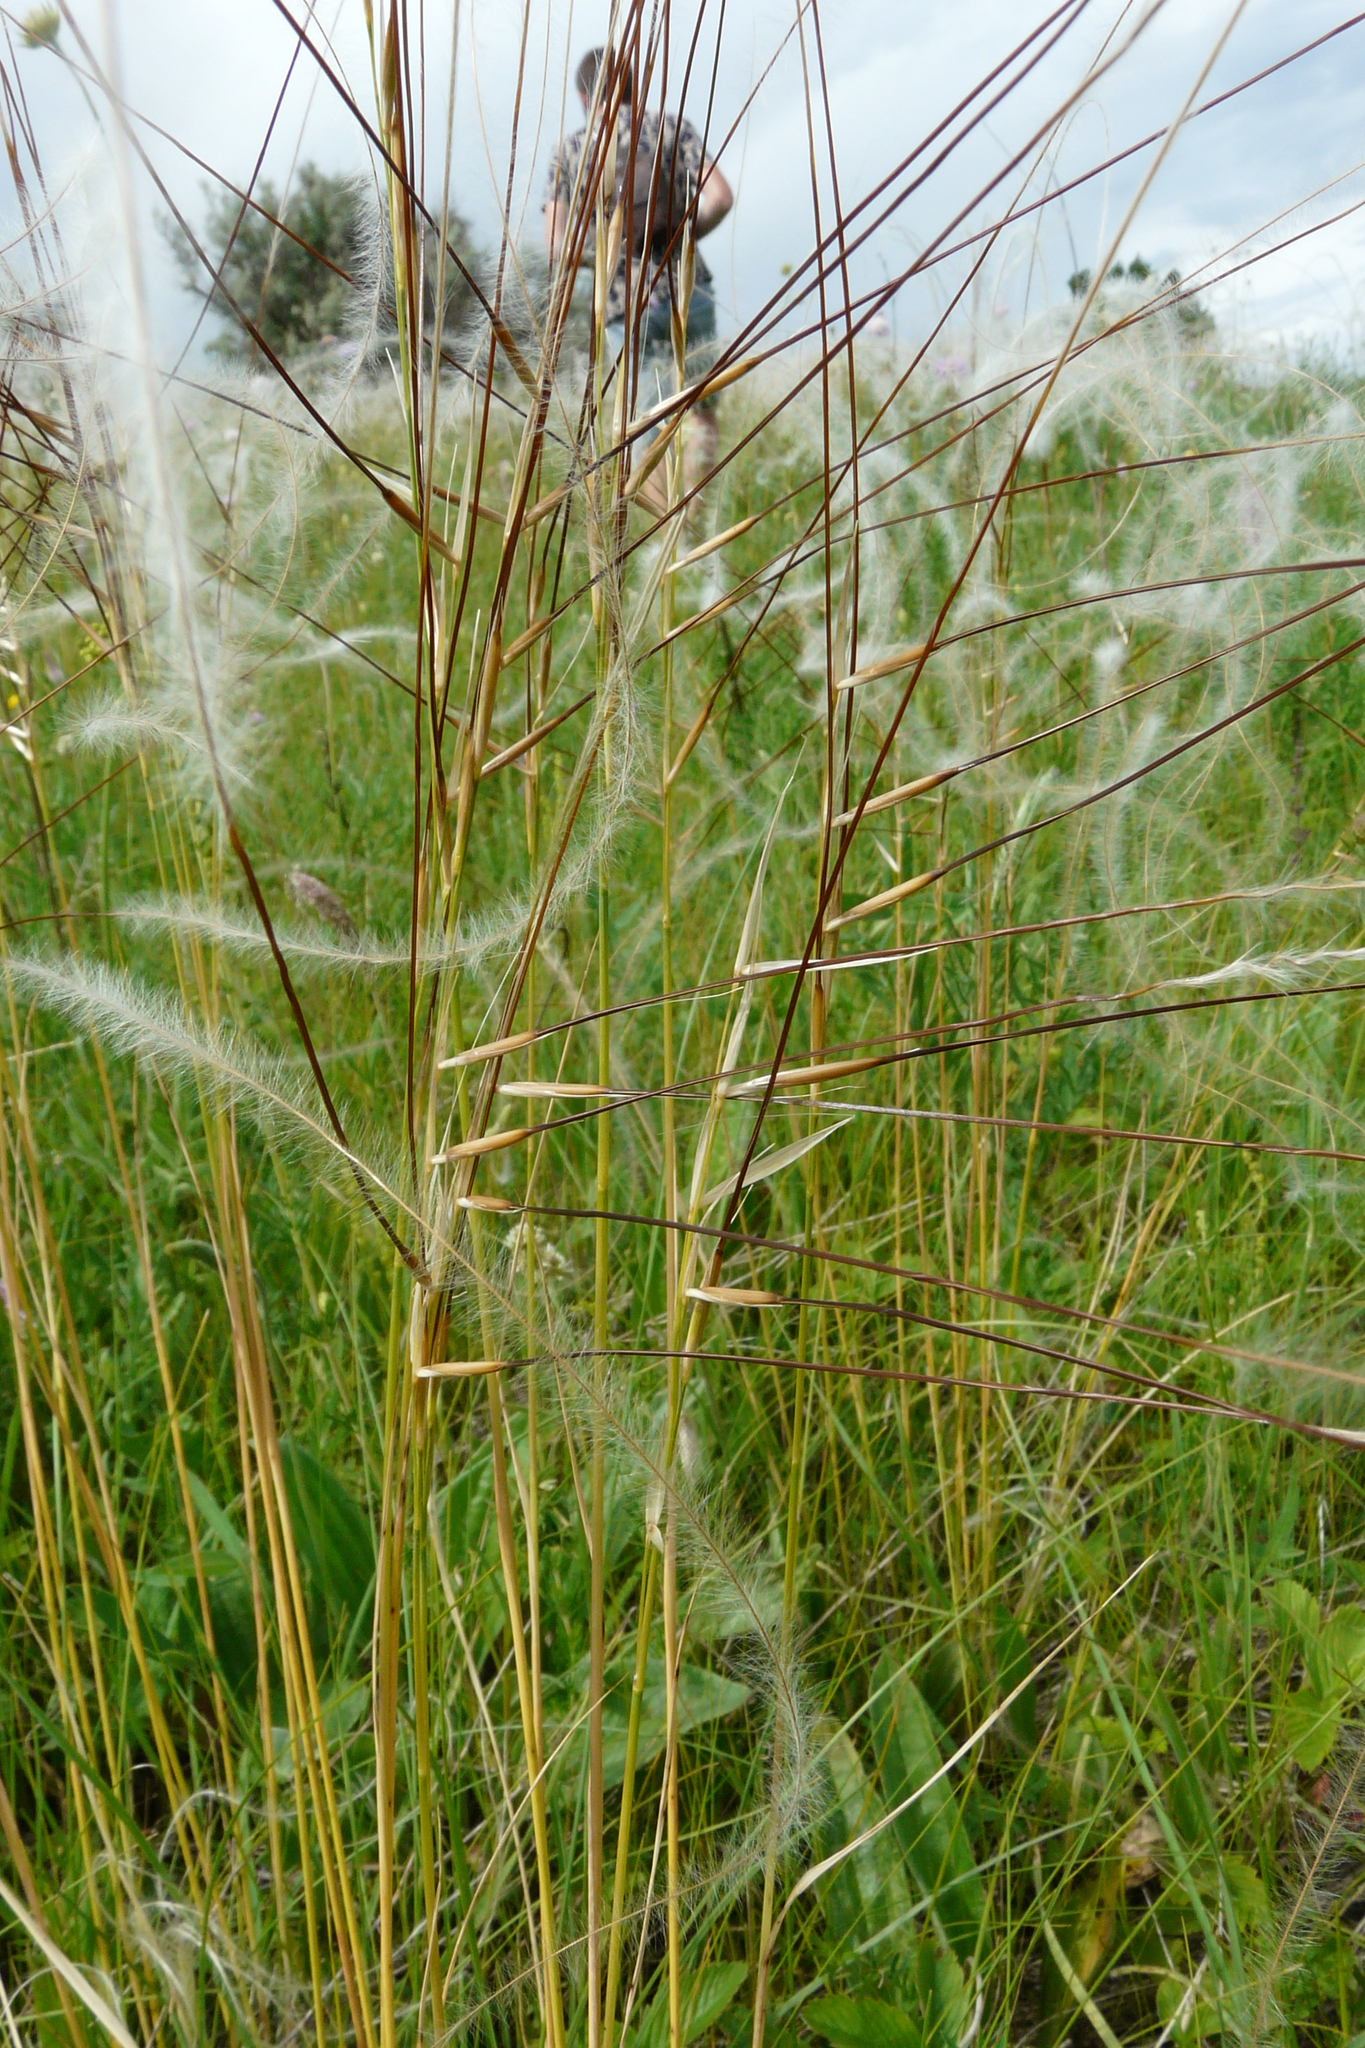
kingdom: Plantae
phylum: Tracheophyta
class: Liliopsida
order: Poales
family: Poaceae
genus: Stipa
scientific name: Stipa pennata
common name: European feather grass
